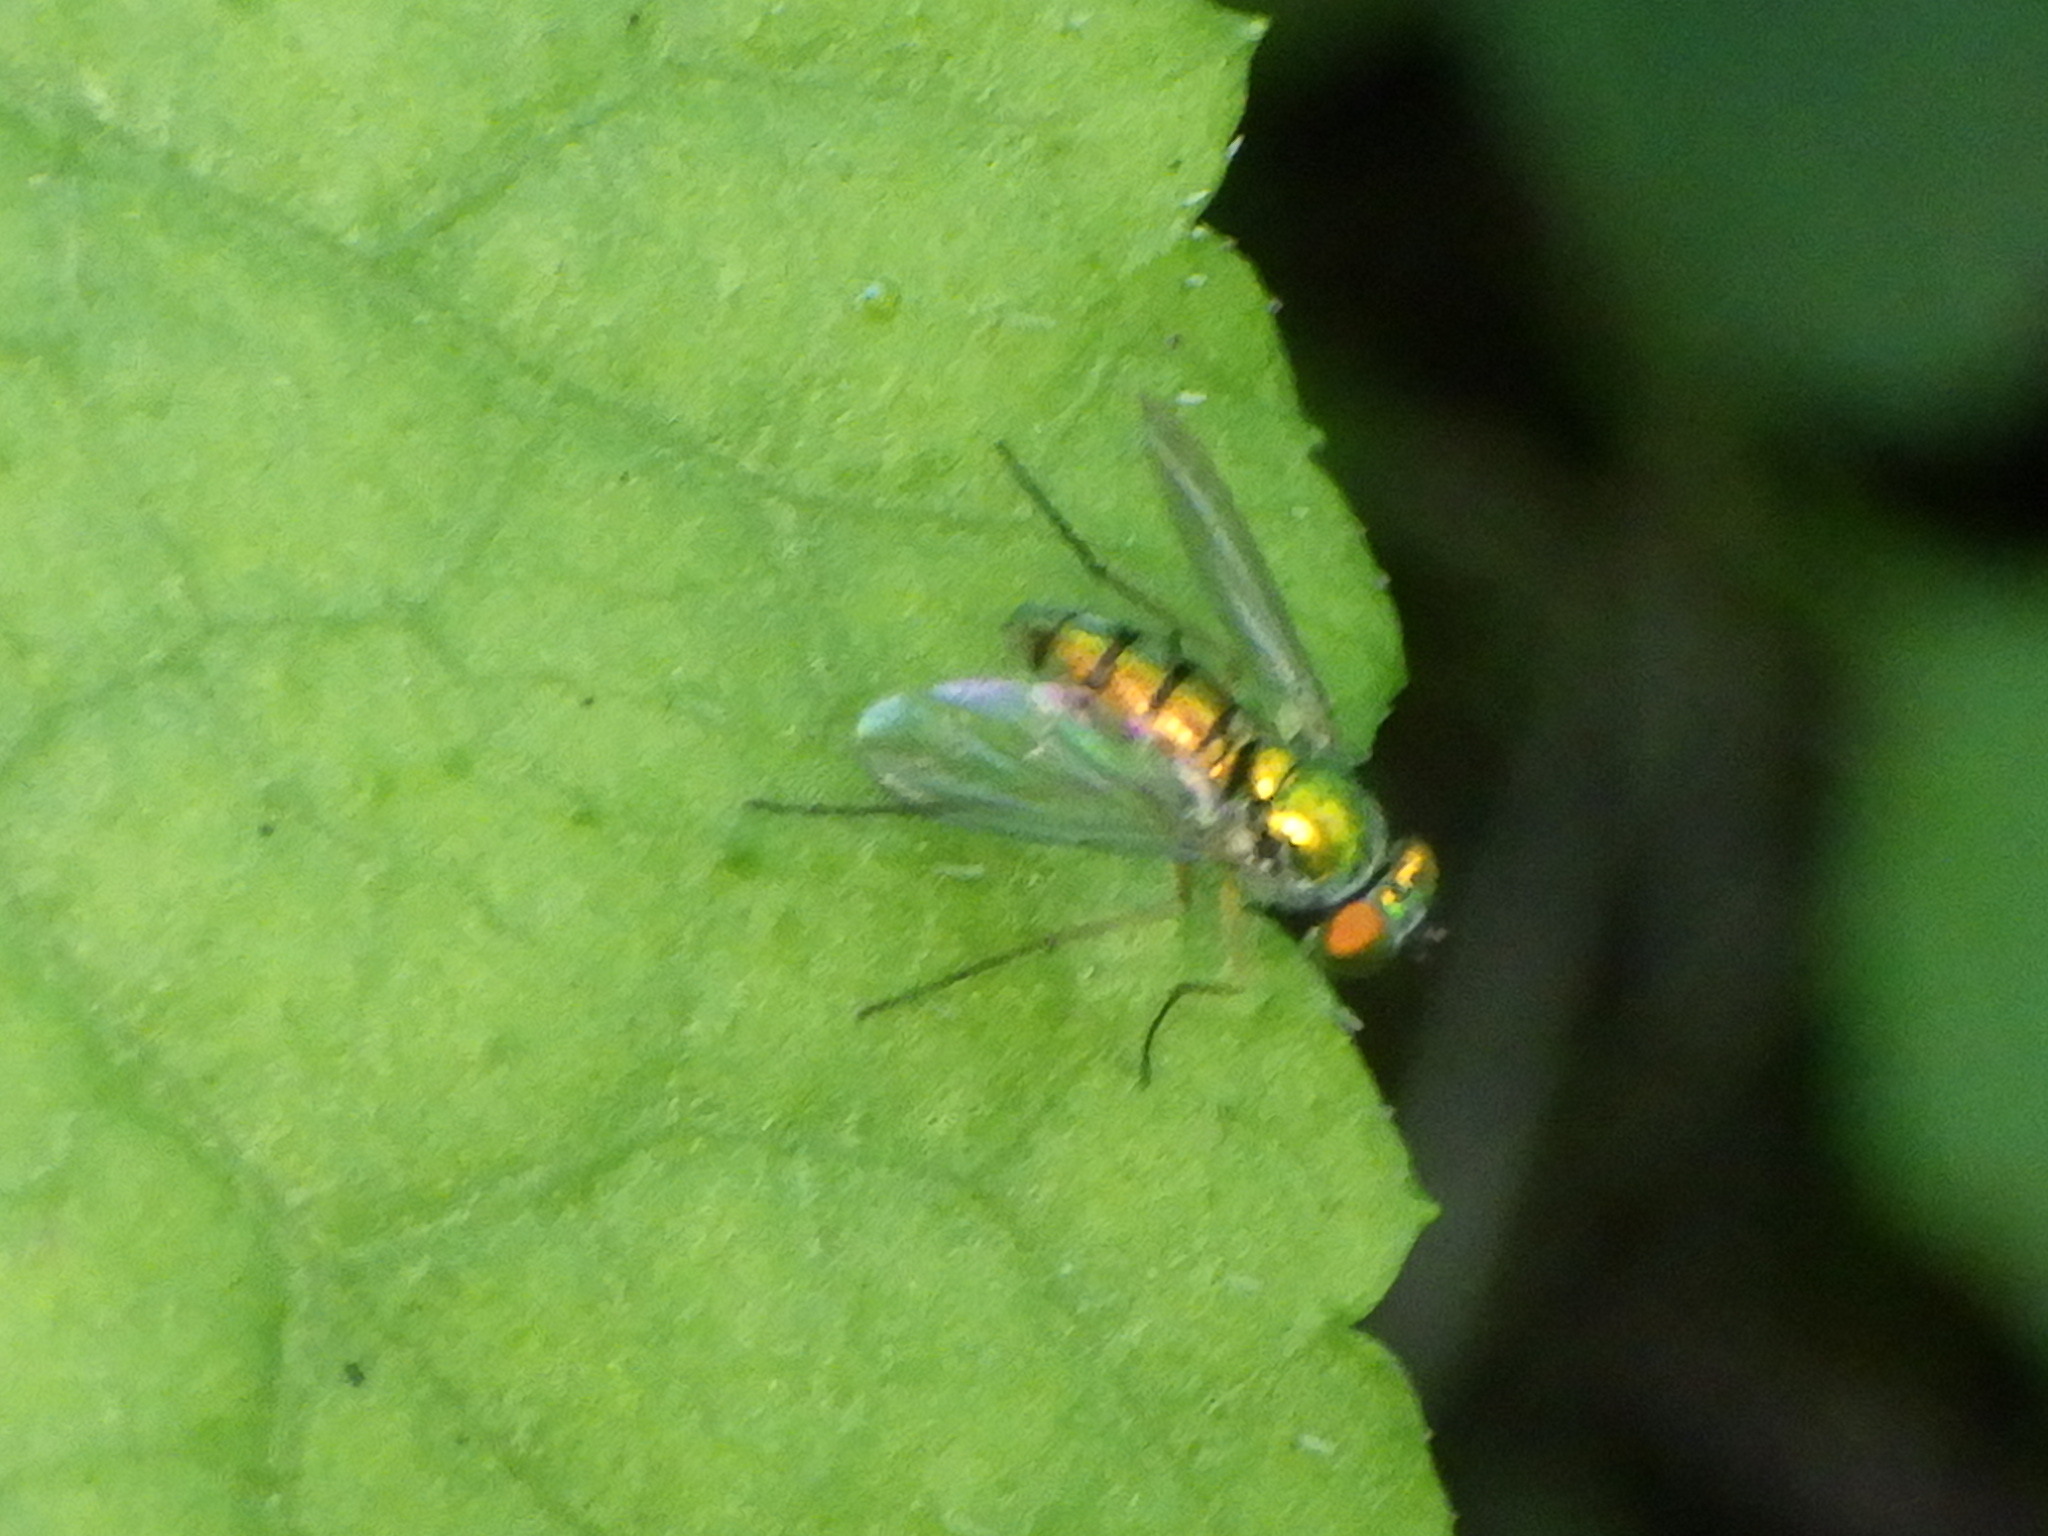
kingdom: Animalia
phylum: Arthropoda
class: Insecta
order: Diptera
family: Dolichopodidae
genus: Condylostylus
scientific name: Condylostylus
